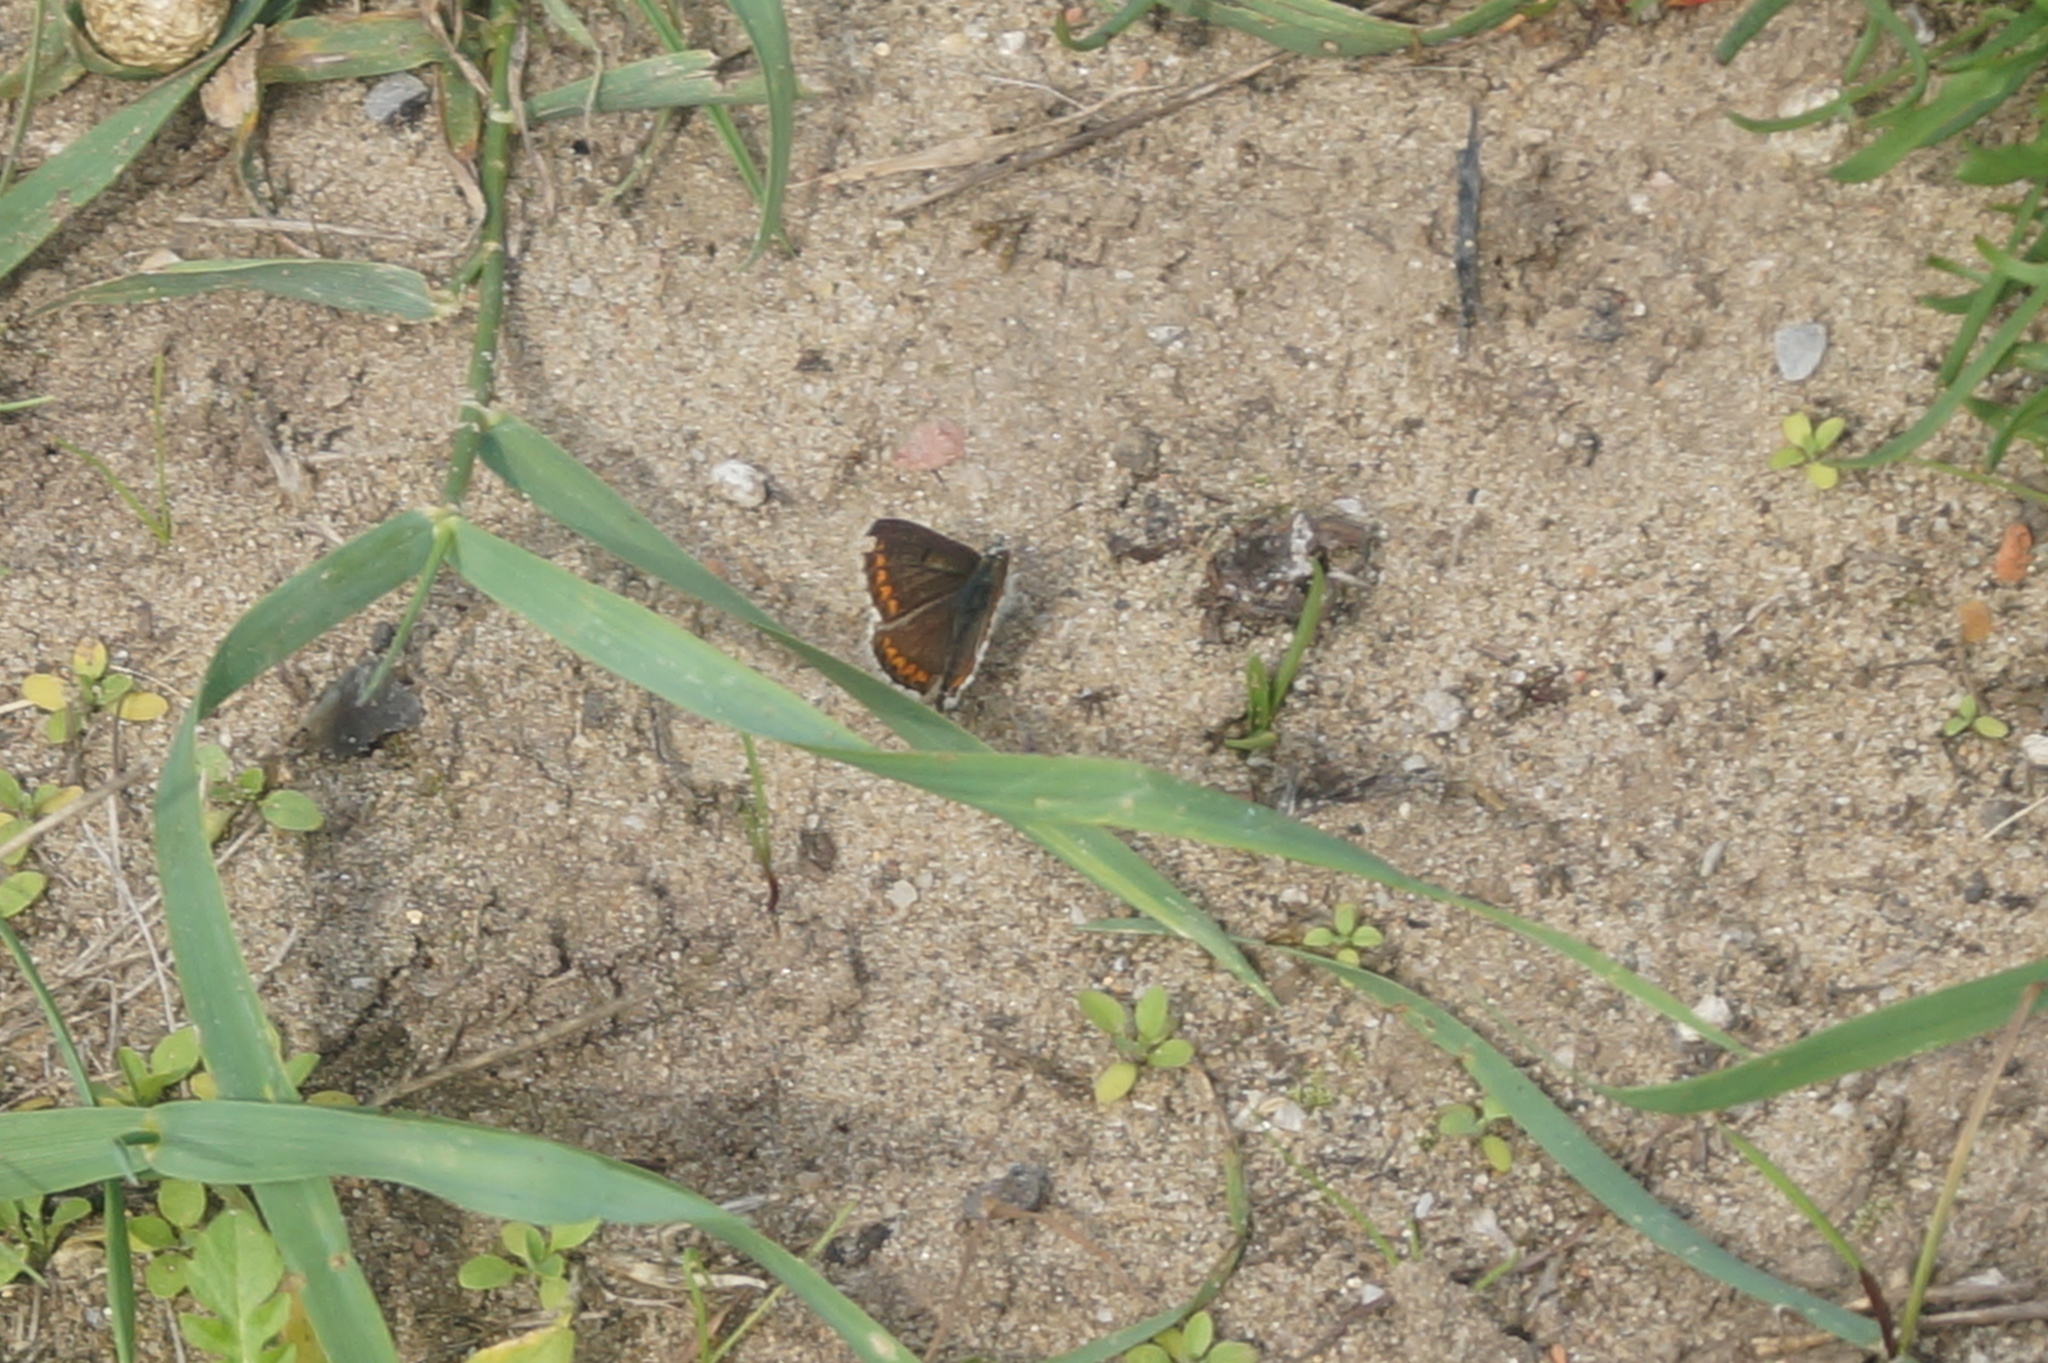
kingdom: Animalia
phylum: Arthropoda
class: Insecta
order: Lepidoptera
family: Lycaenidae
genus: Aricia
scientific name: Aricia agestis
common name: Brown argus
